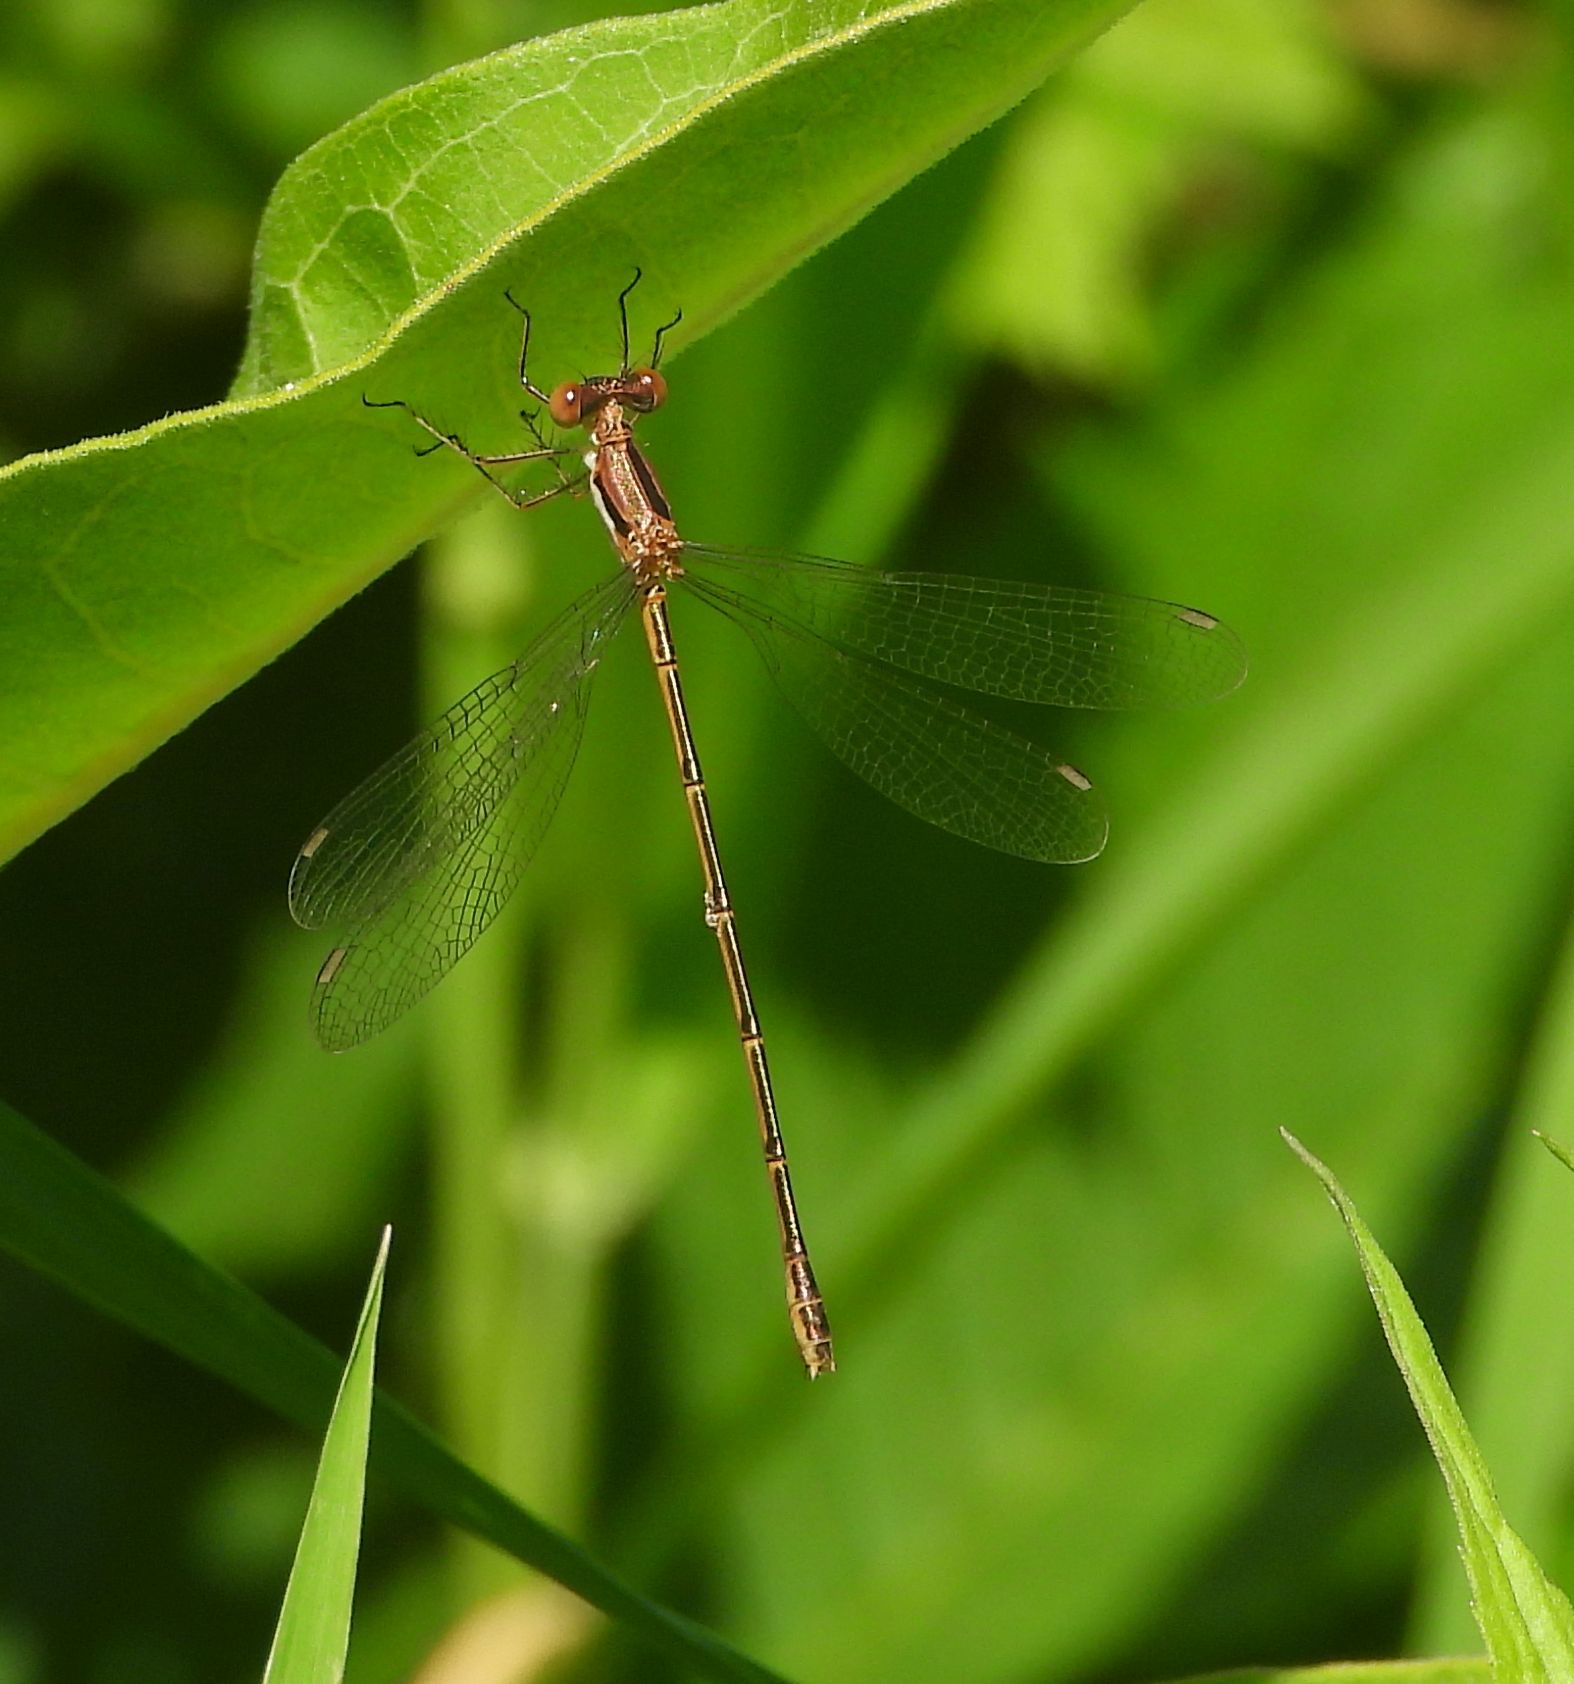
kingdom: Animalia
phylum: Arthropoda
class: Insecta
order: Odonata
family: Lestidae
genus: Lestes
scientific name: Lestes rectangularis
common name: Slender spreadwing
